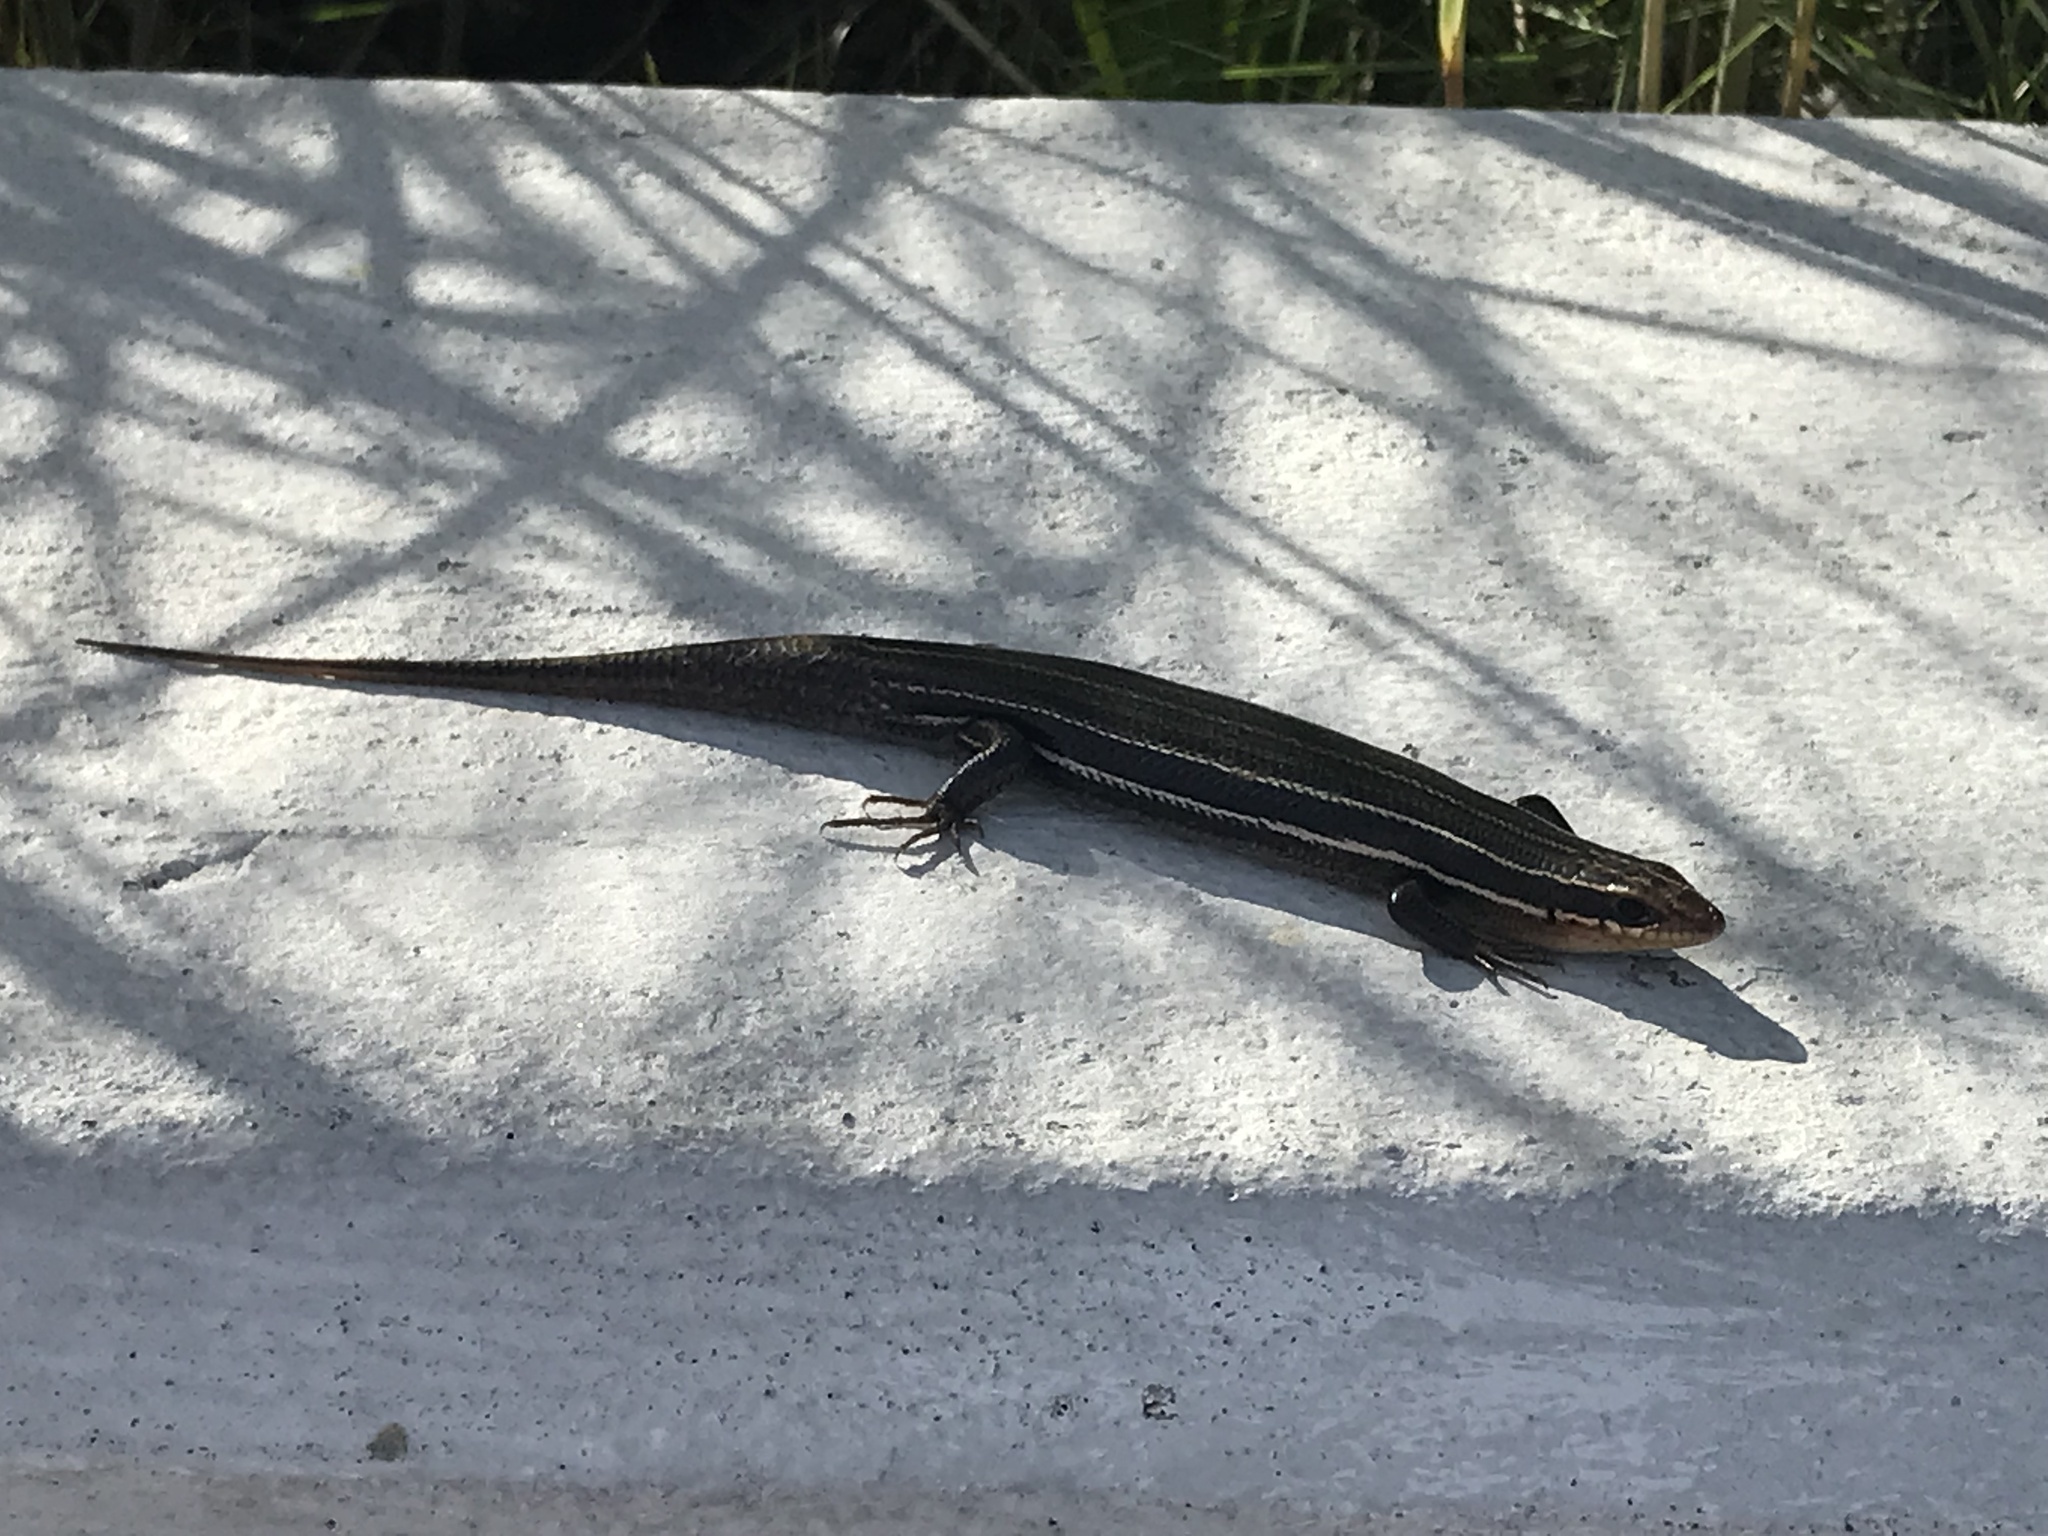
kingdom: Animalia
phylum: Chordata
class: Squamata
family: Scincidae
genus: Plestiodon
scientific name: Plestiodon inexpectatus
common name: Southeastern five-lined skink
